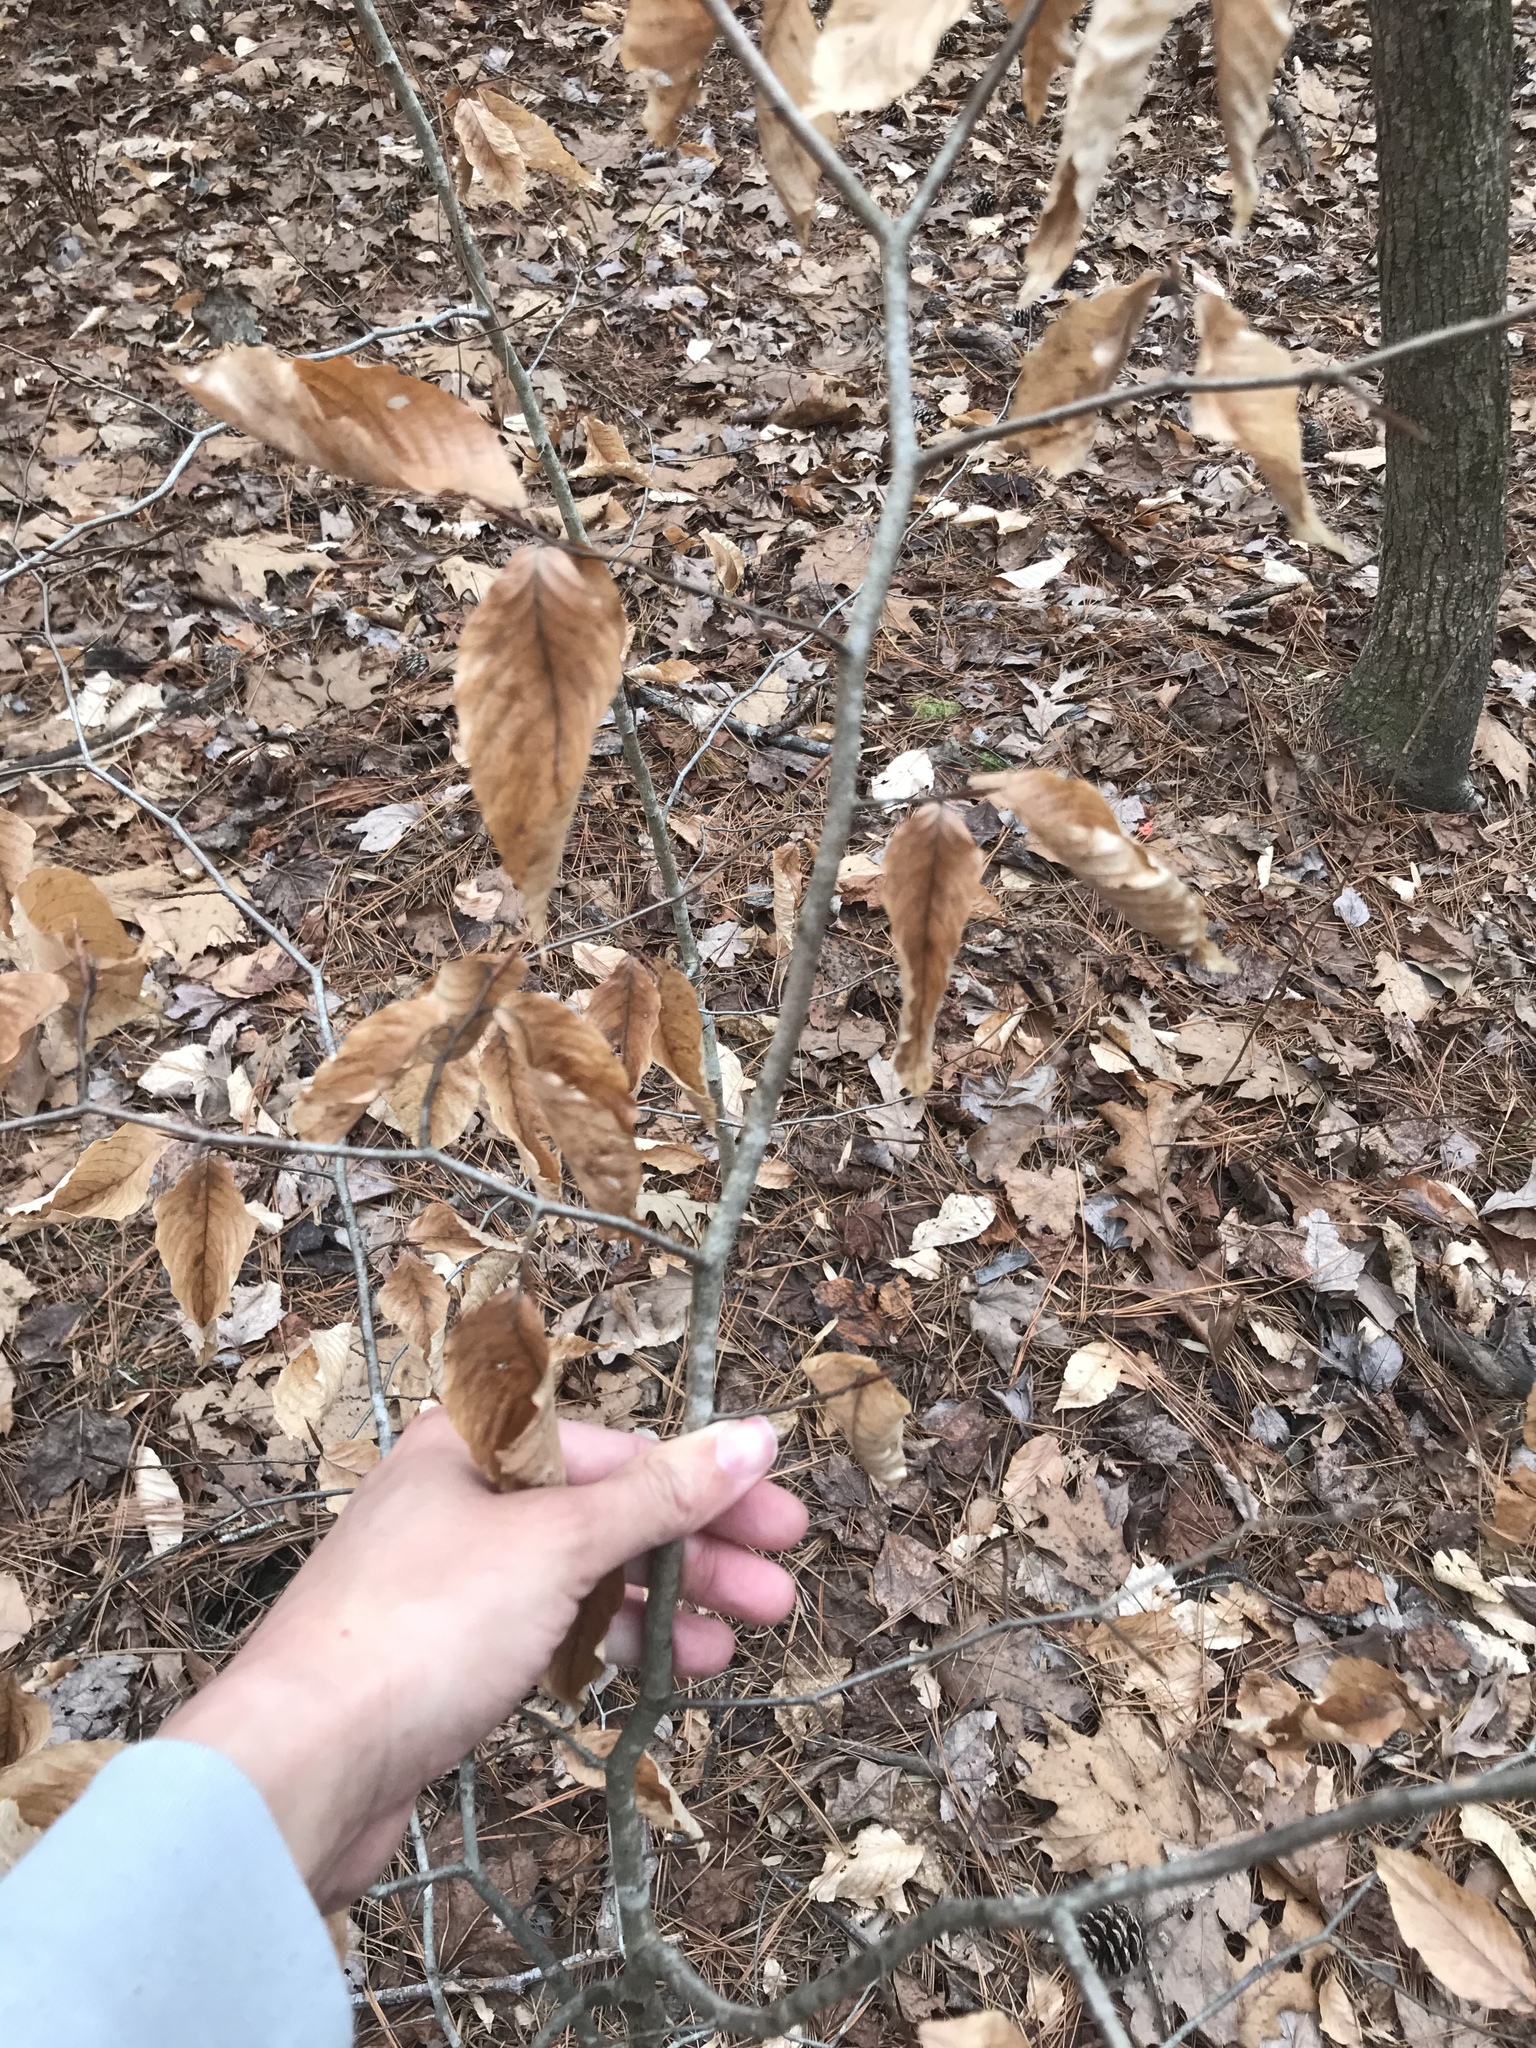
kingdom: Plantae
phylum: Tracheophyta
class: Magnoliopsida
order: Fagales
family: Fagaceae
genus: Fagus
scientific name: Fagus grandifolia
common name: American beech
